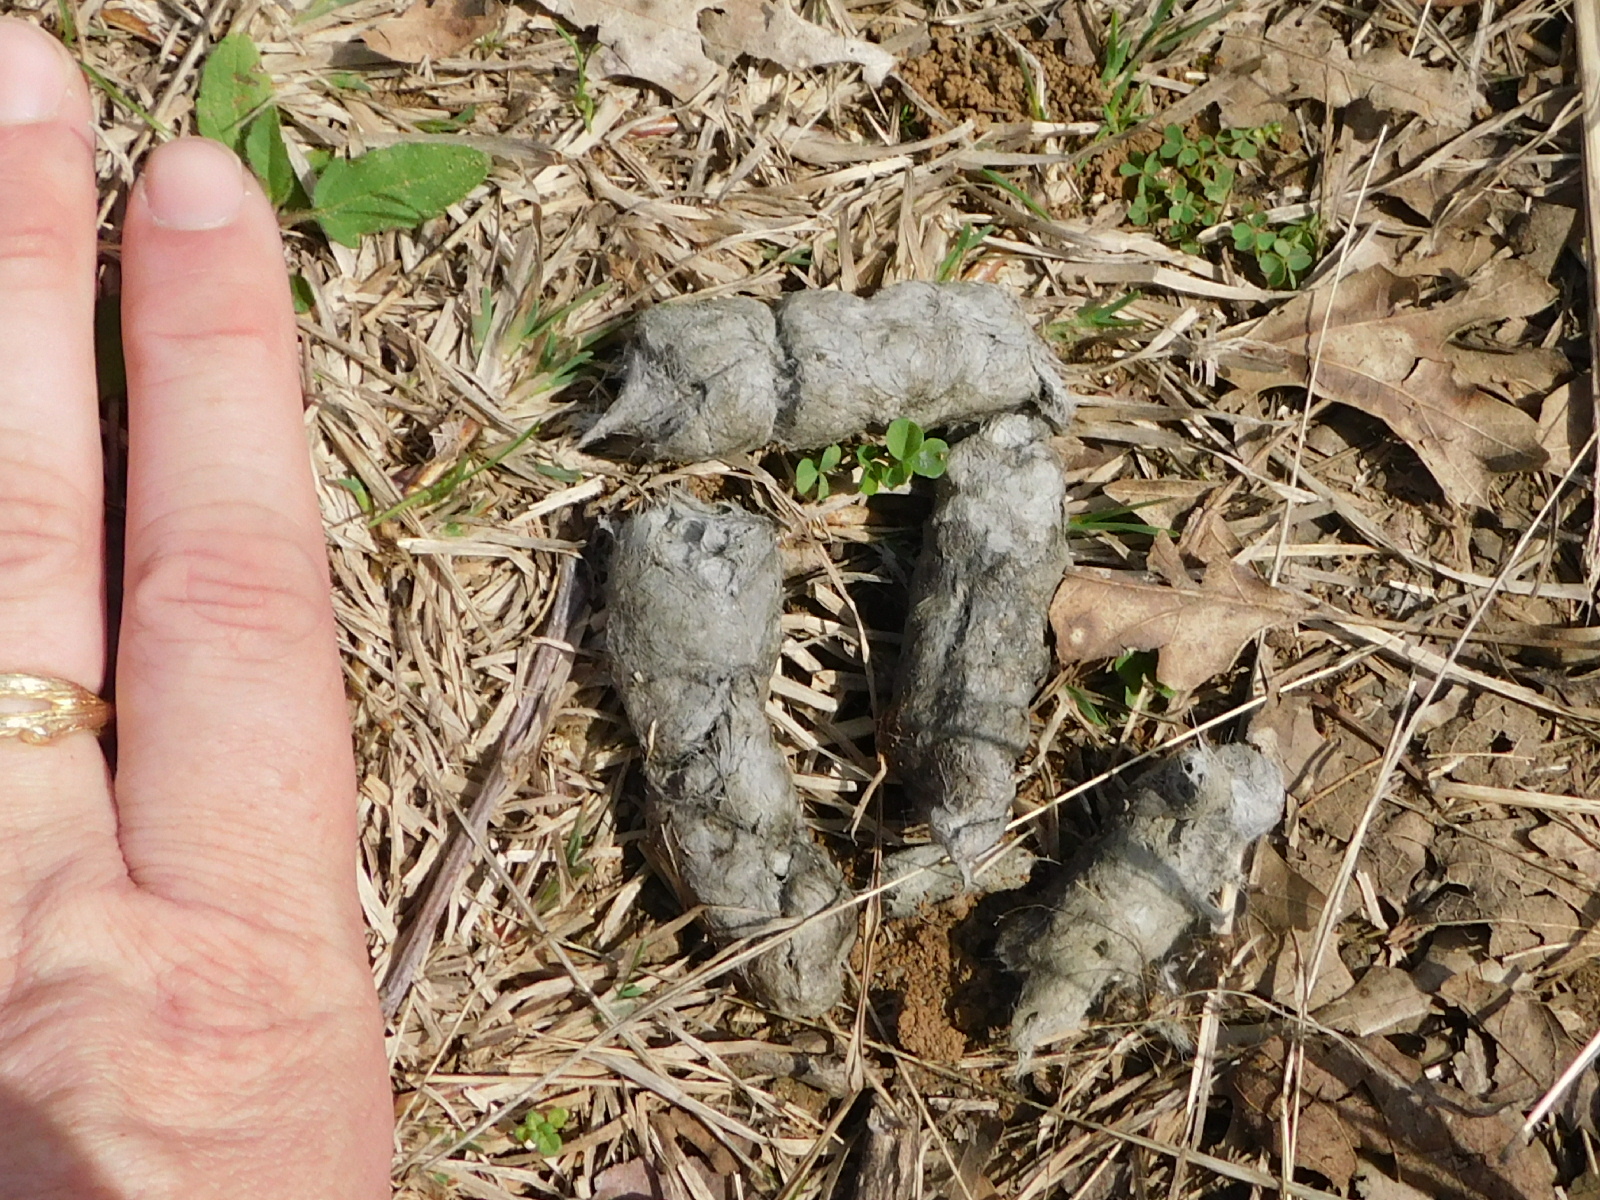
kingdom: Animalia
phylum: Chordata
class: Mammalia
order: Carnivora
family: Canidae
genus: Canis
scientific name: Canis latrans
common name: Coyote
